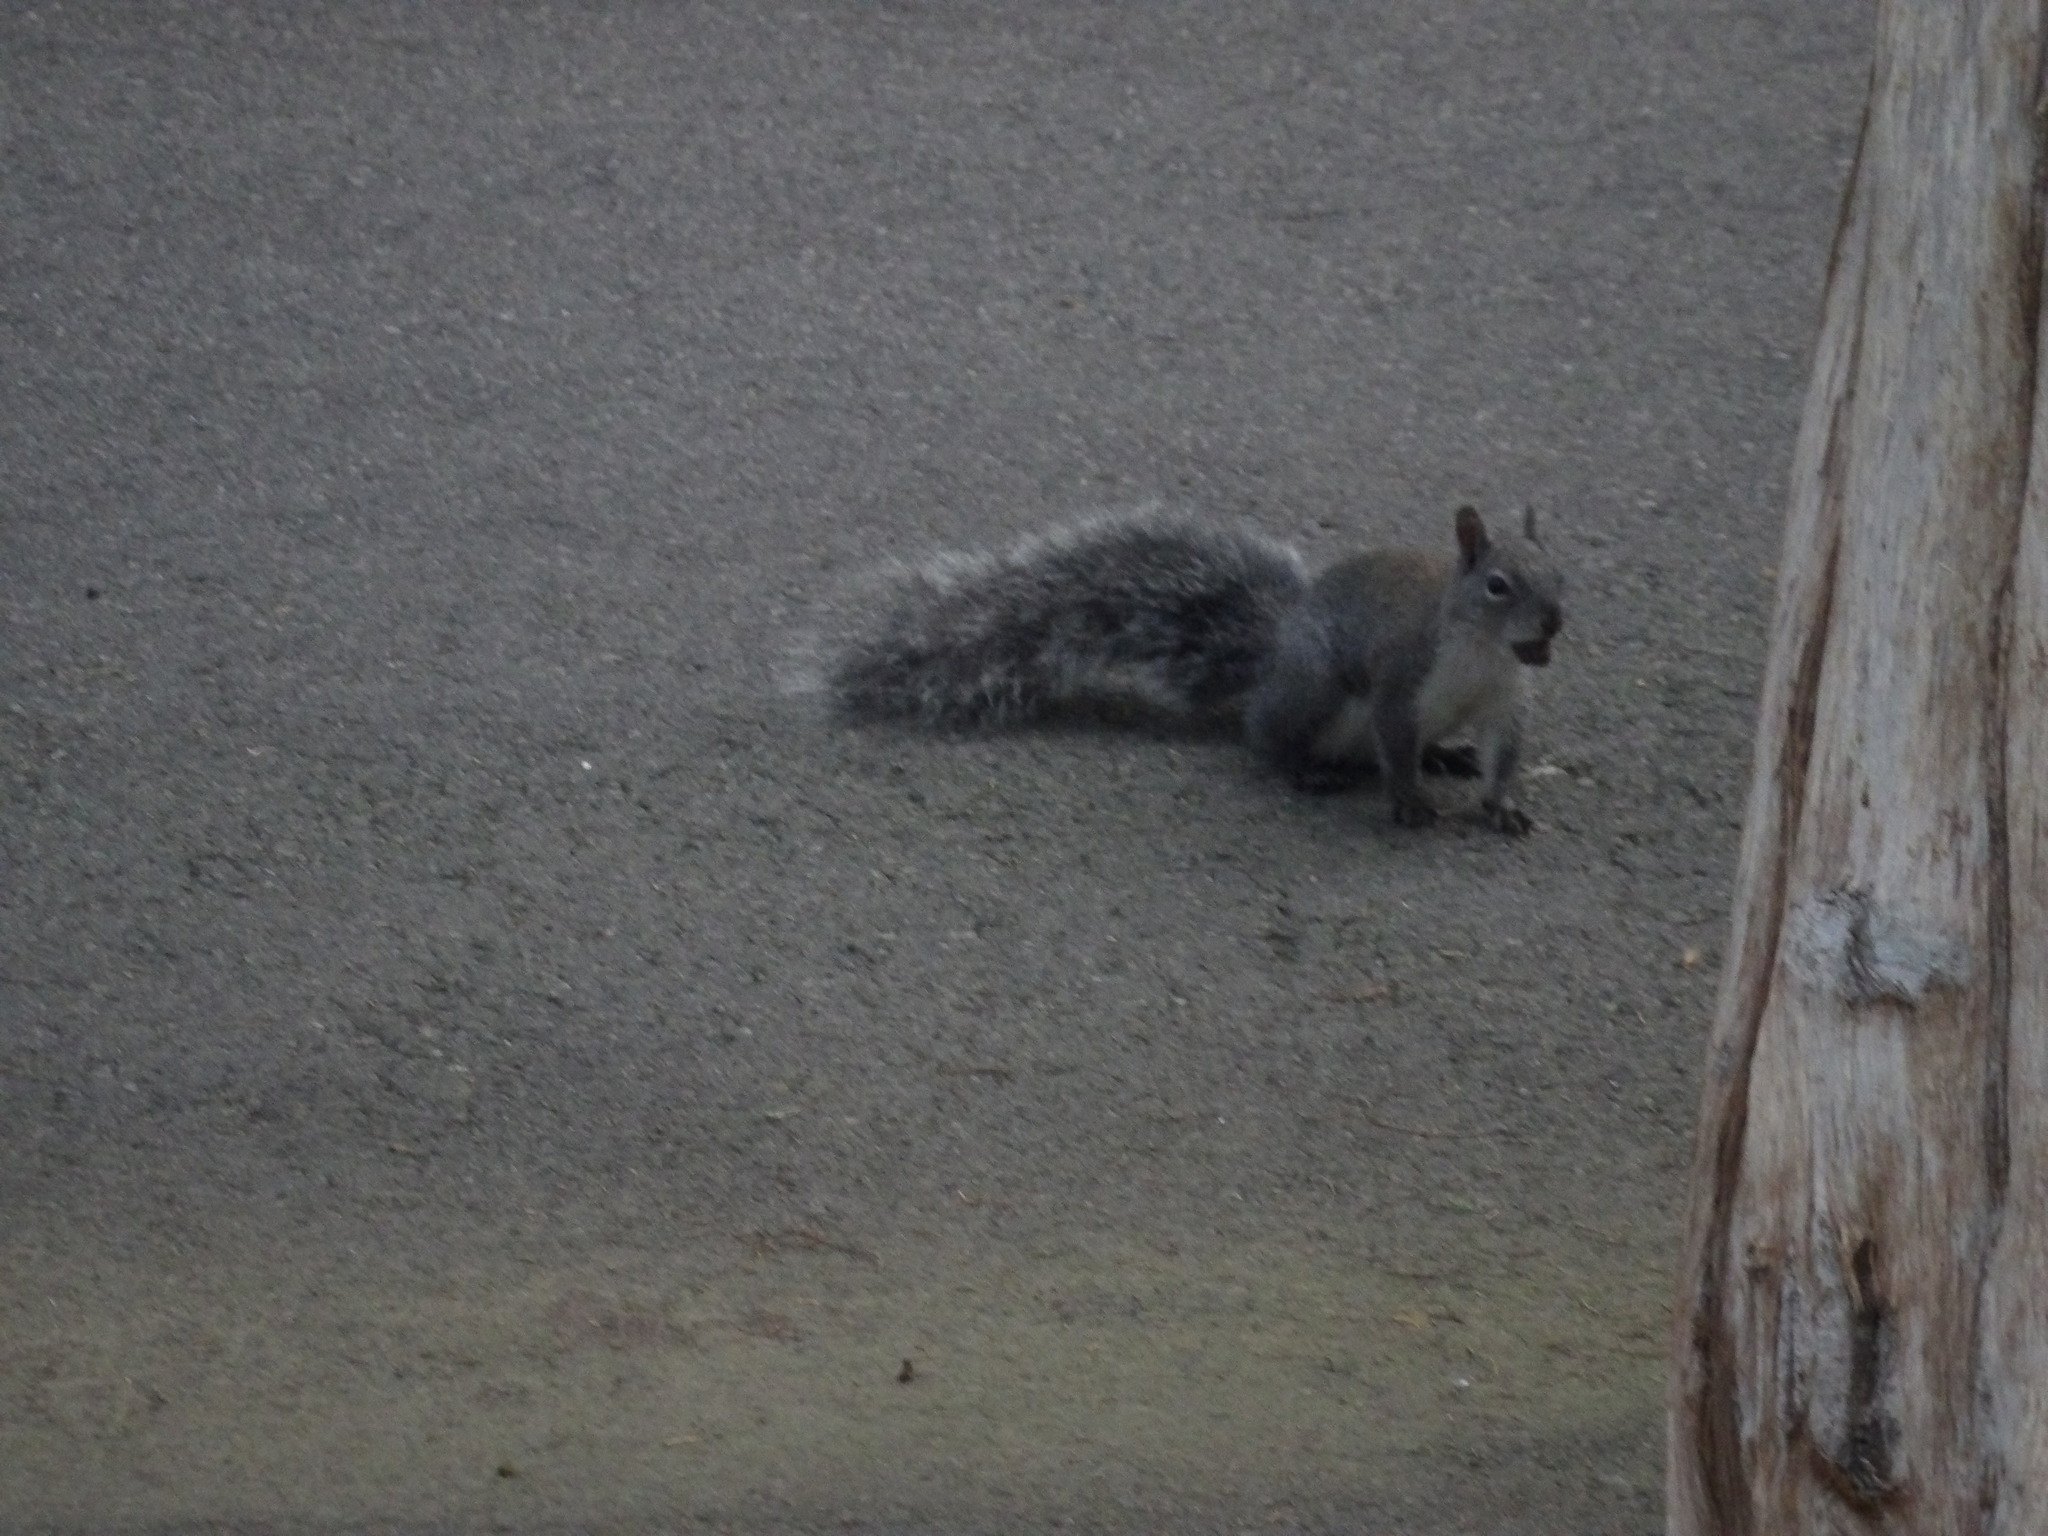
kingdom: Animalia
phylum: Chordata
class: Mammalia
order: Rodentia
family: Sciuridae
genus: Sciurus
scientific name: Sciurus griseus
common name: Western gray squirrel
